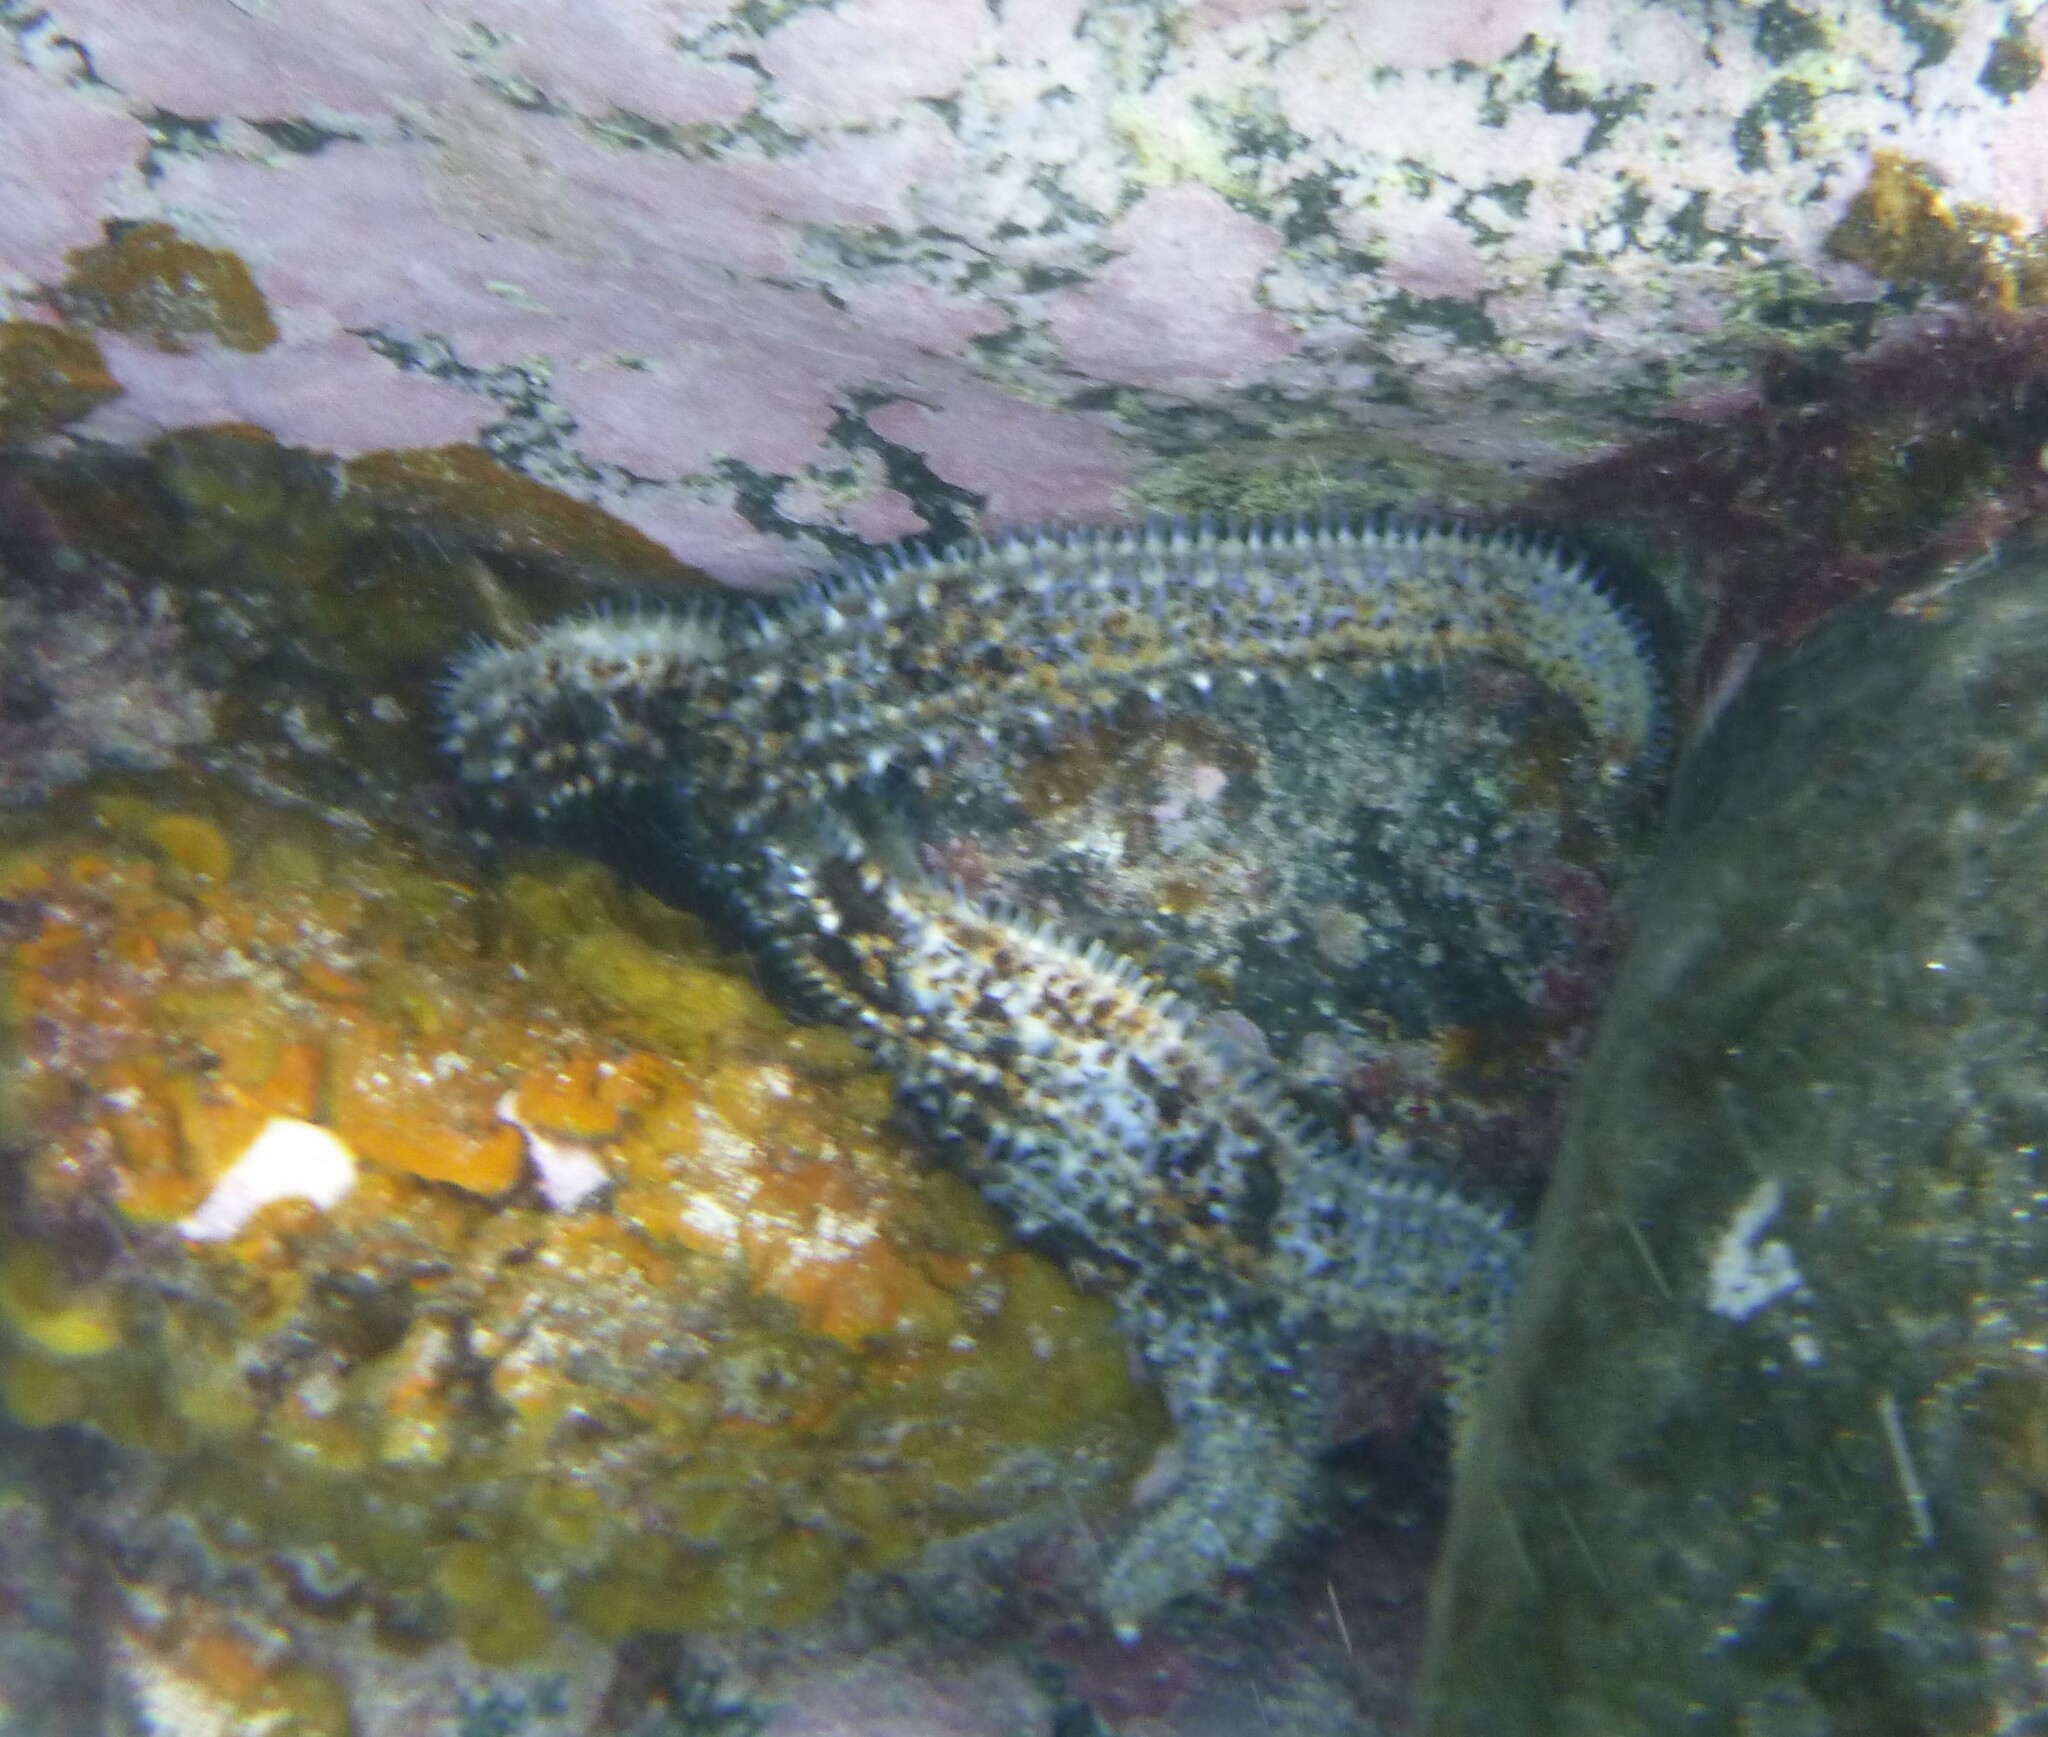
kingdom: Animalia
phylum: Echinodermata
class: Asteroidea
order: Forcipulatida
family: Asteriidae
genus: Coscinasterias
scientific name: Coscinasterias tenuispina
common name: Blue spiny starfish
